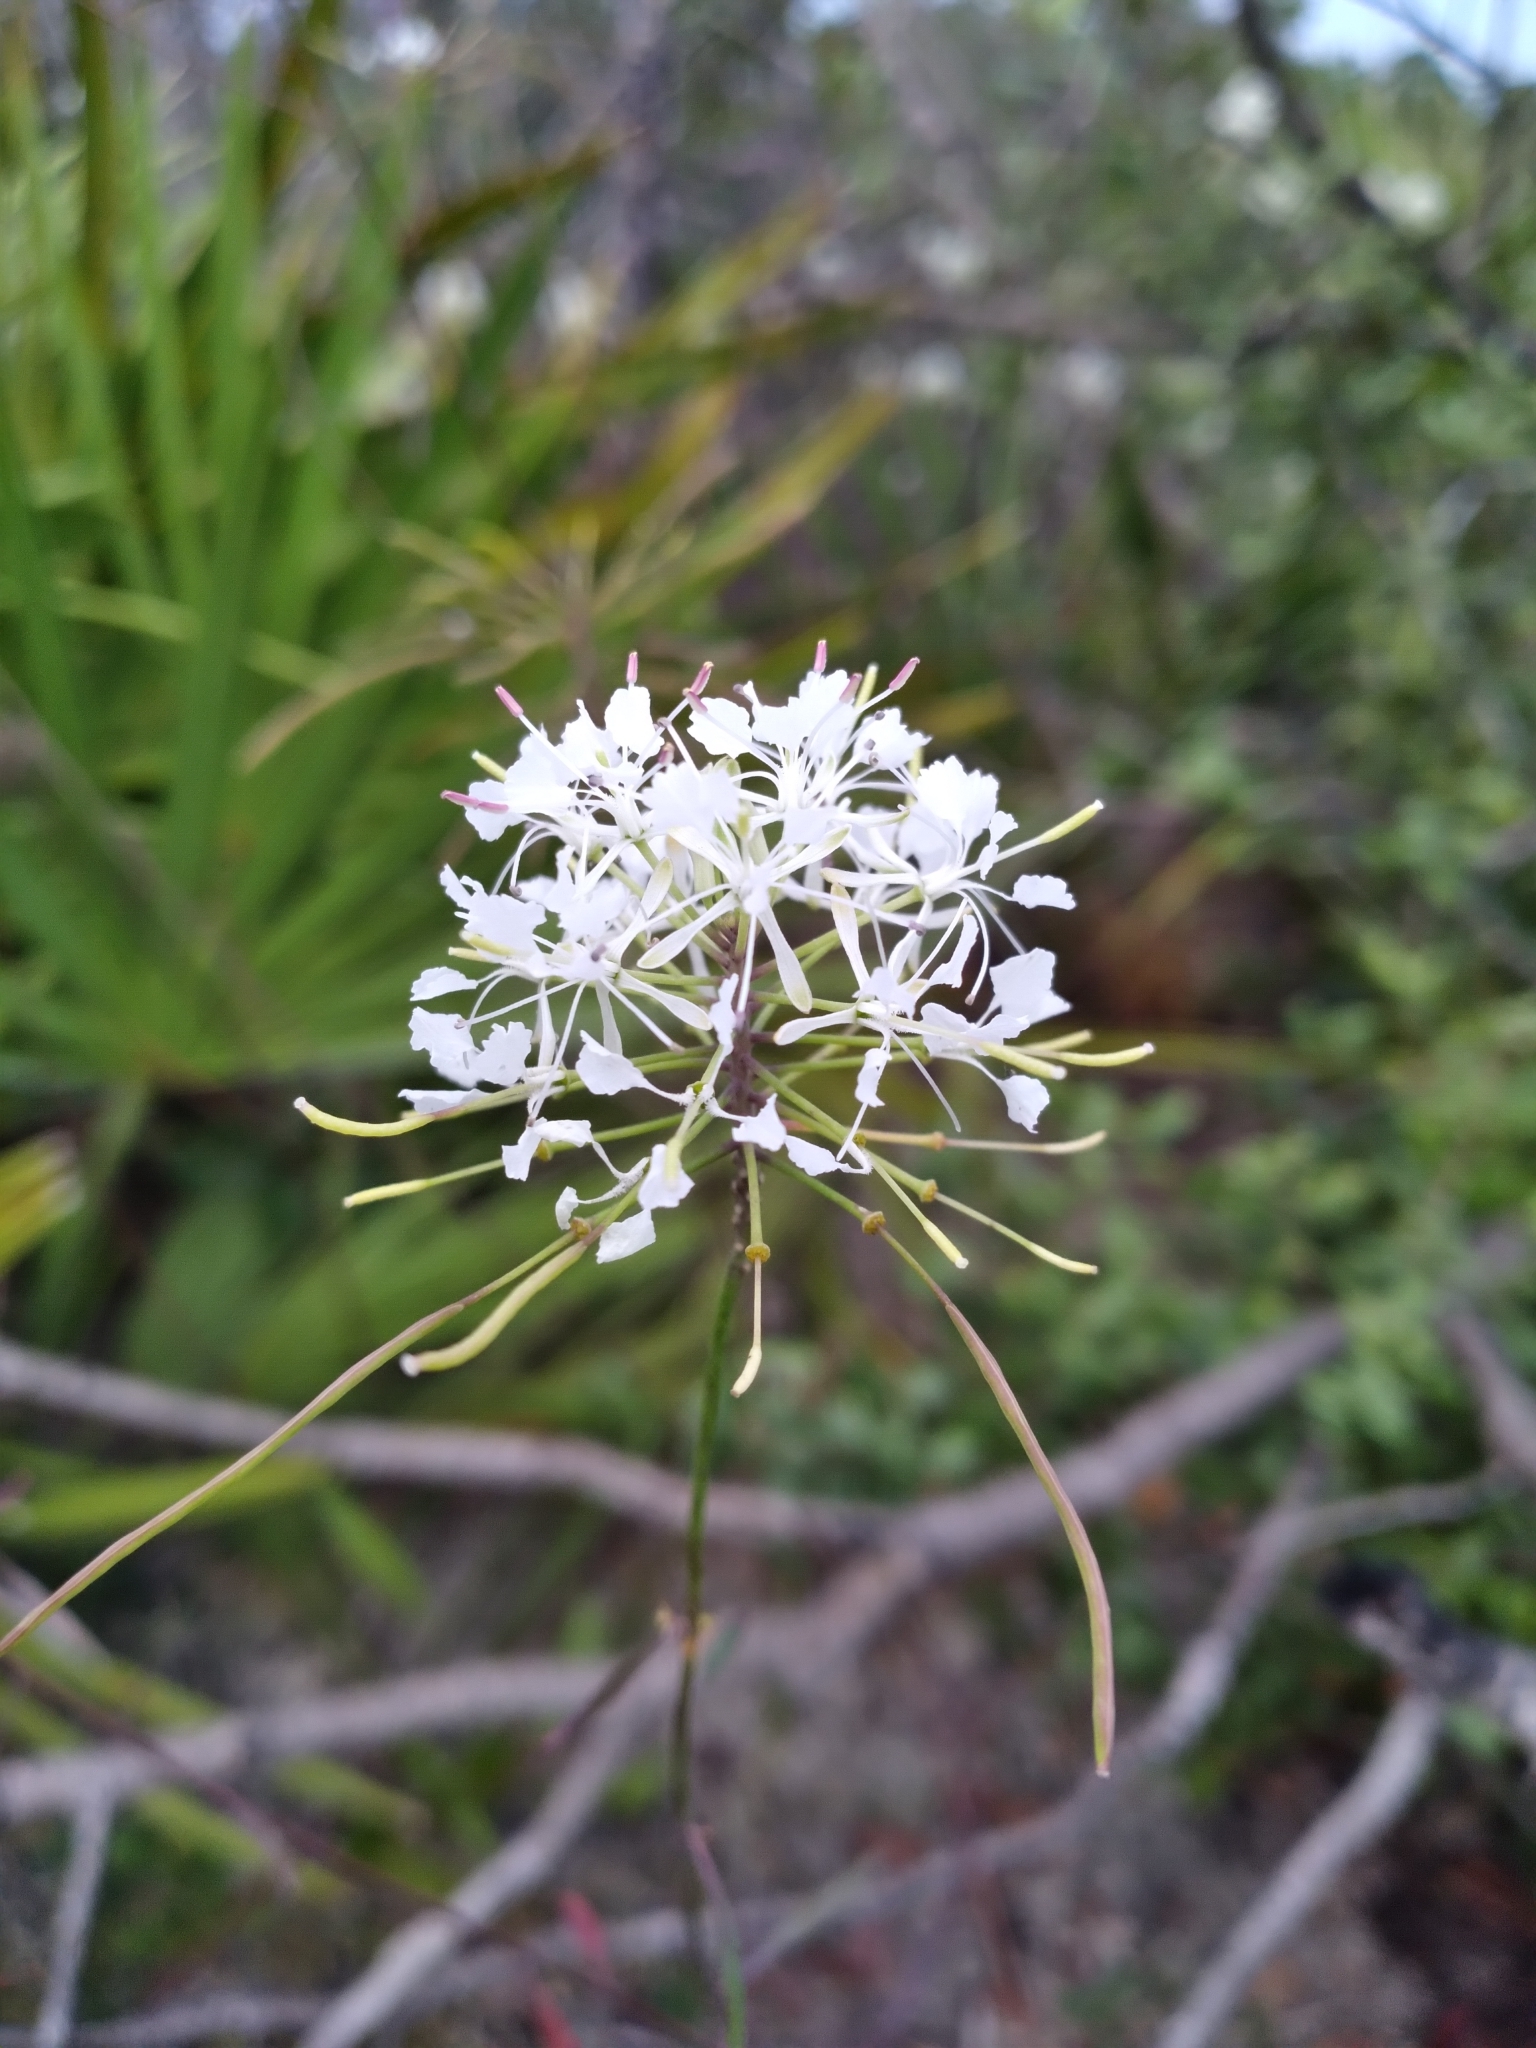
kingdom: Plantae
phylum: Tracheophyta
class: Magnoliopsida
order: Brassicales
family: Brassicaceae
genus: Warea
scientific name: Warea carteri
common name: Carter's mustard
